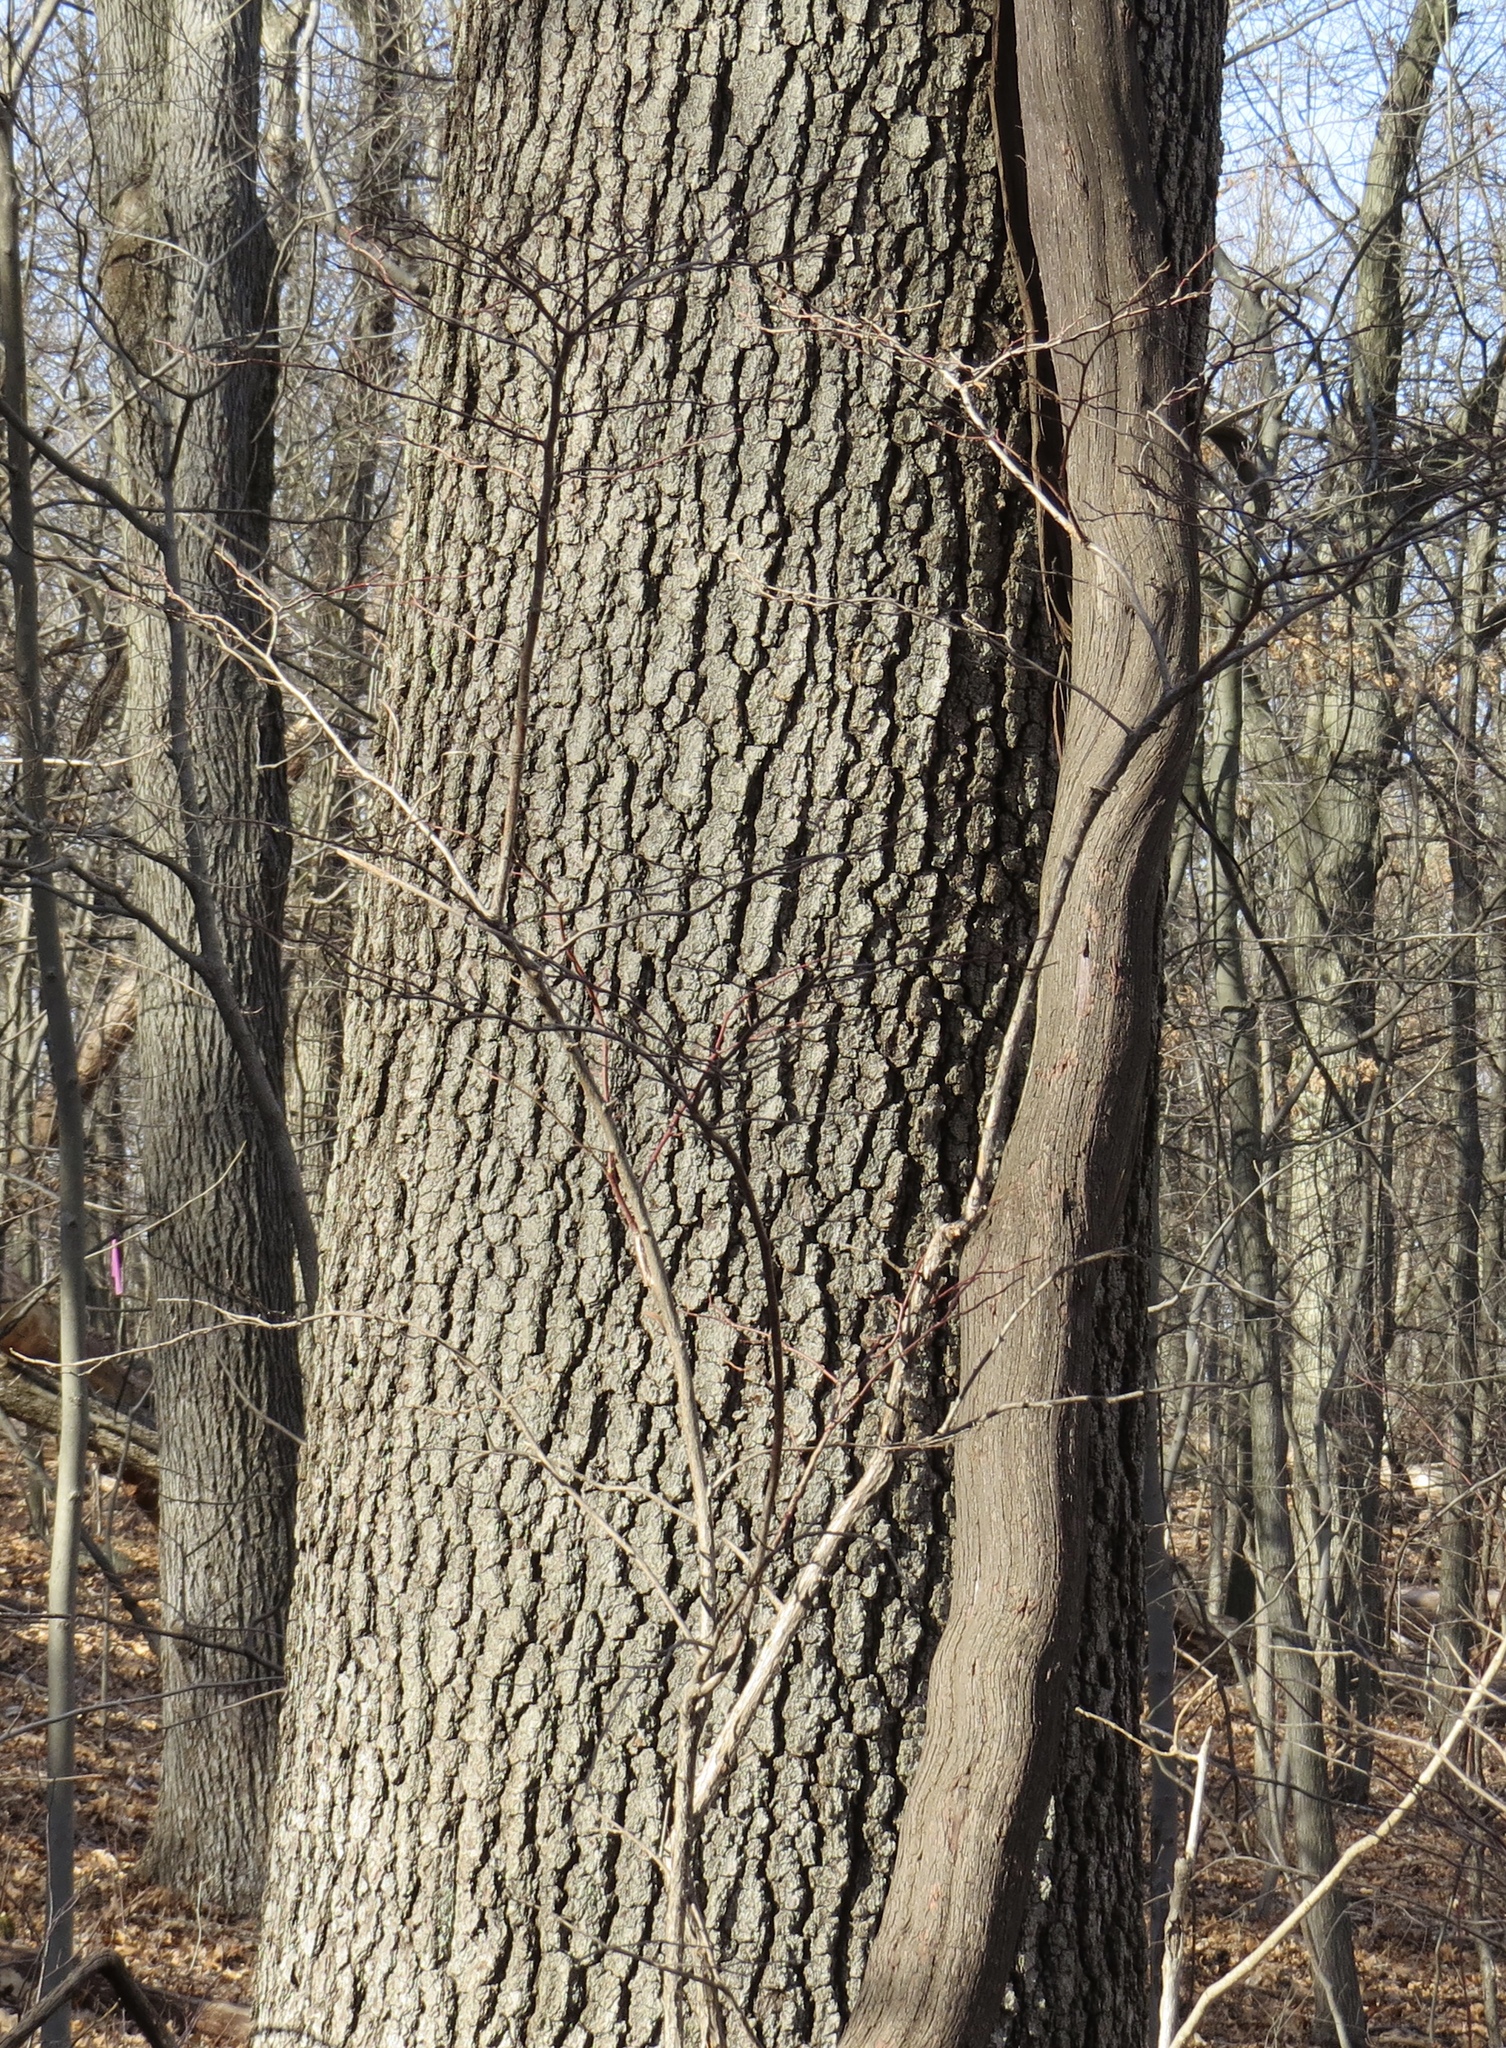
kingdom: Plantae
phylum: Tracheophyta
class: Magnoliopsida
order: Vitales
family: Vitaceae
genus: Vitis
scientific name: Vitis
